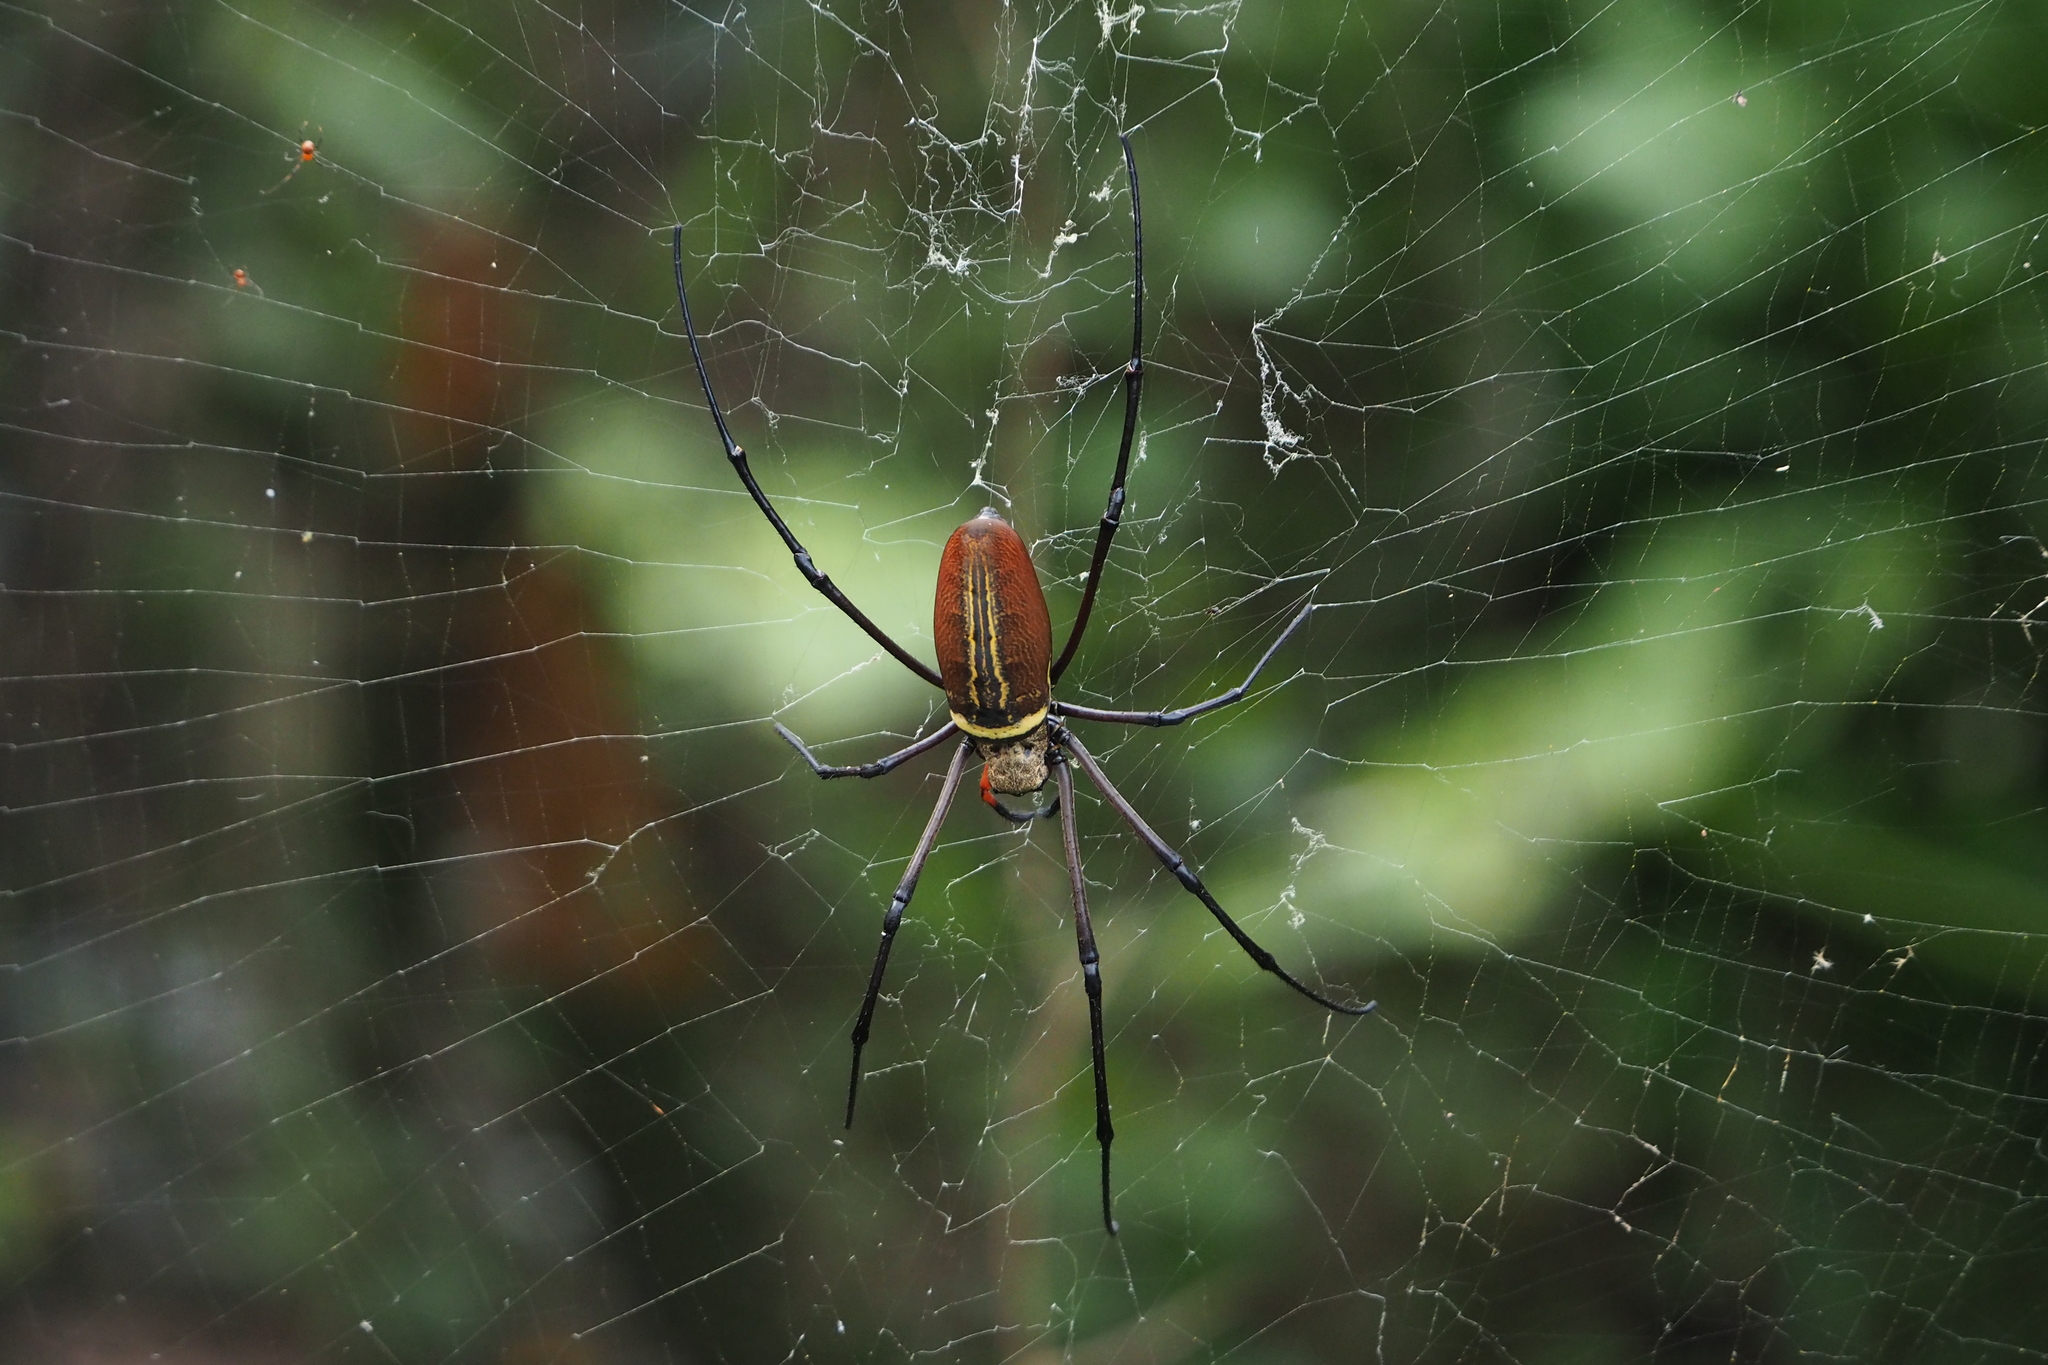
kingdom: Animalia
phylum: Arthropoda
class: Arachnida
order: Araneae
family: Araneidae
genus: Nephila
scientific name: Nephila pilipes
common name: Giant golden orb weaver
